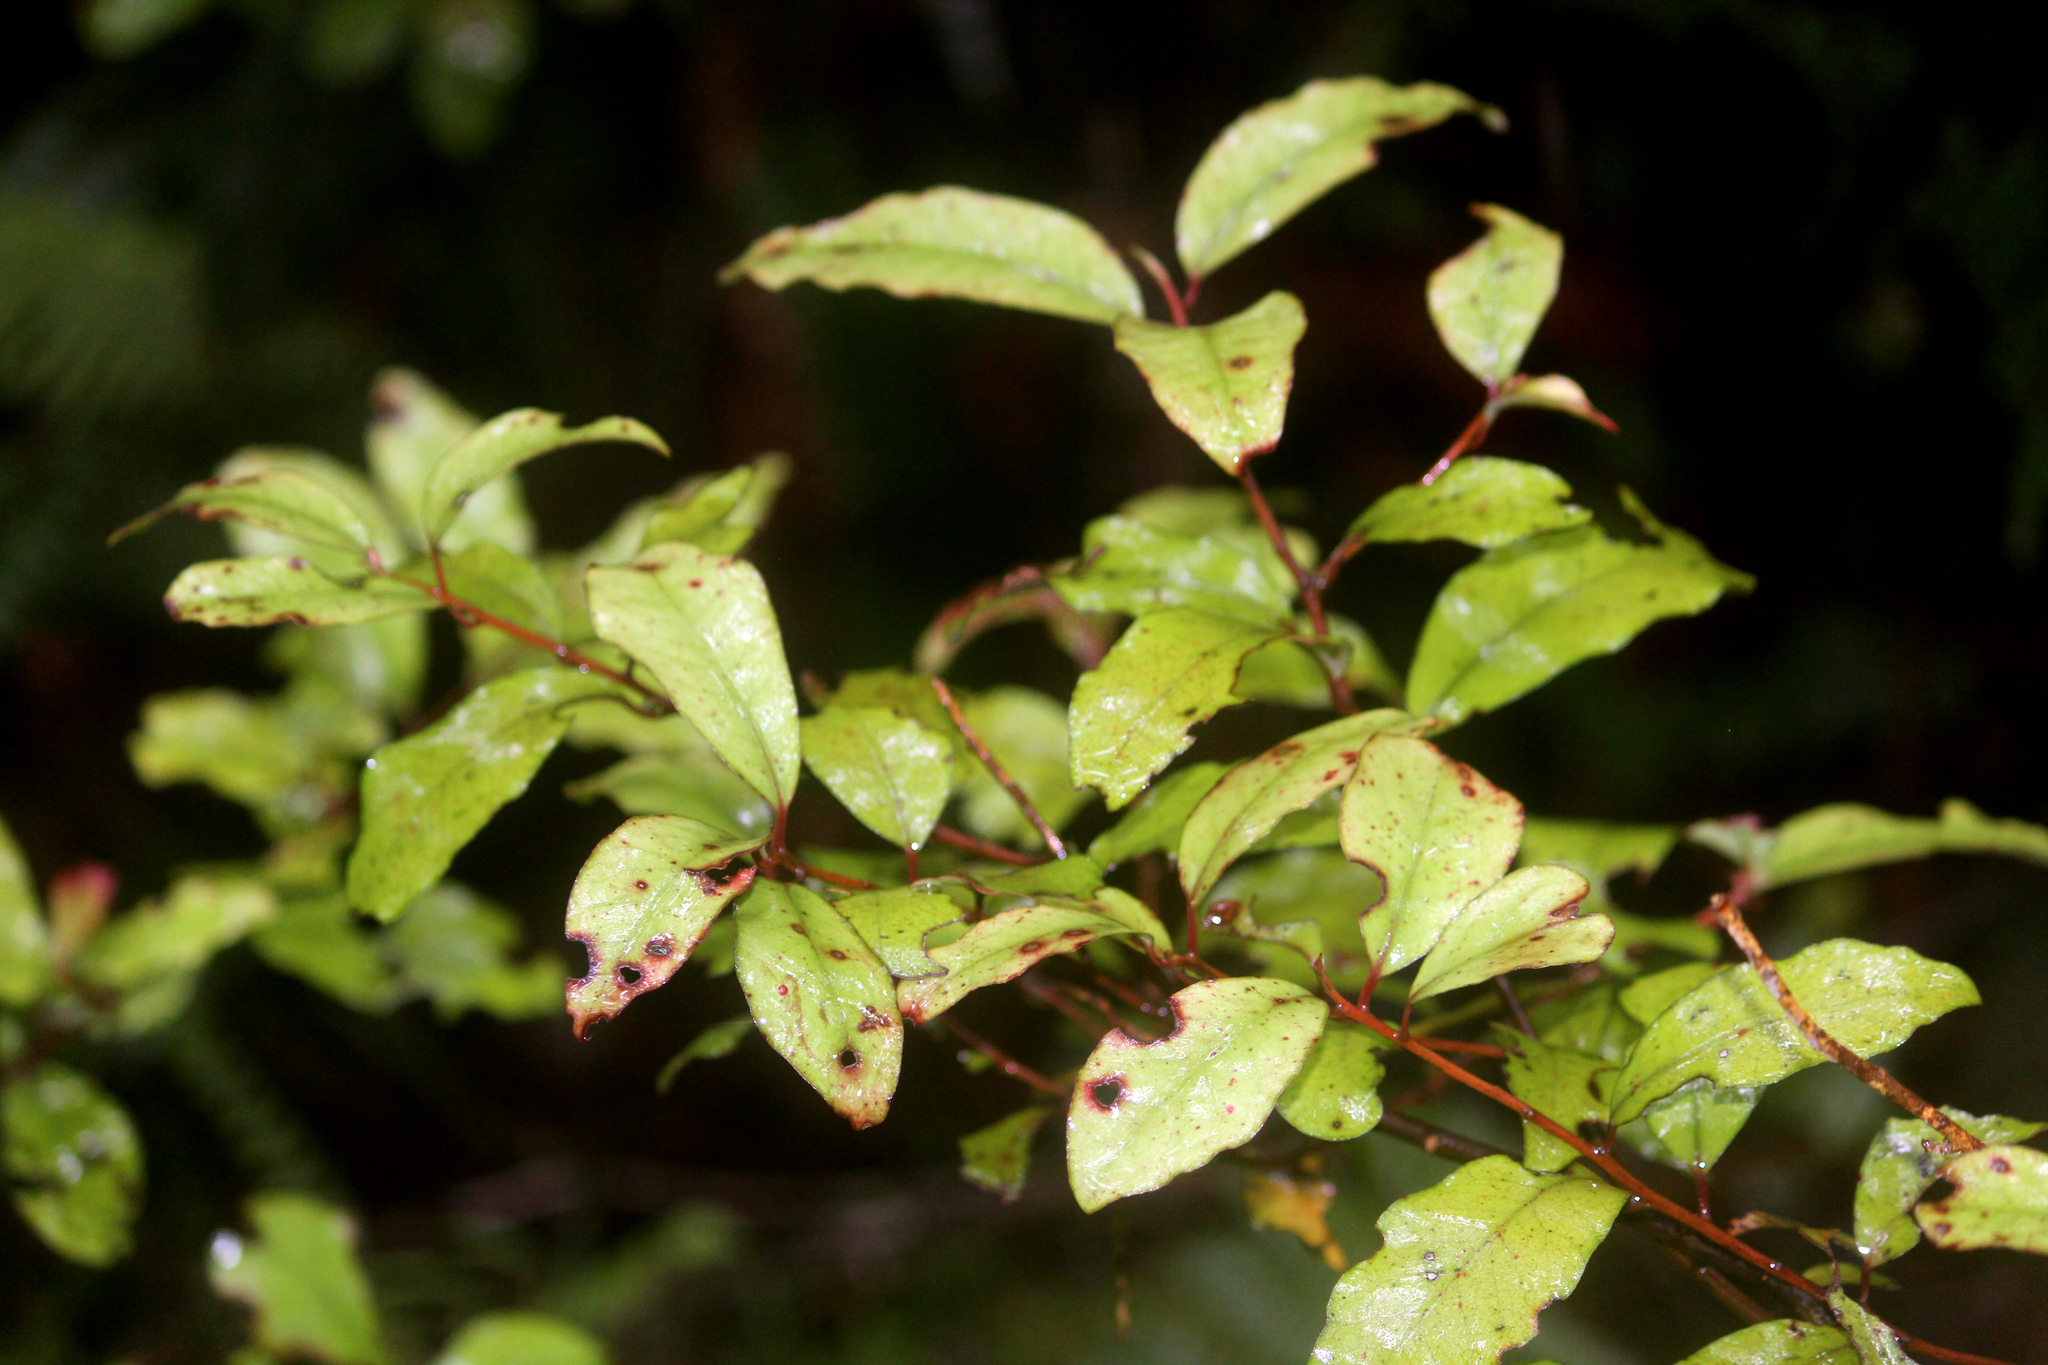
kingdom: Plantae
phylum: Tracheophyta
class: Magnoliopsida
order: Ericales
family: Primulaceae
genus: Myrsine
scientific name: Myrsine australis
